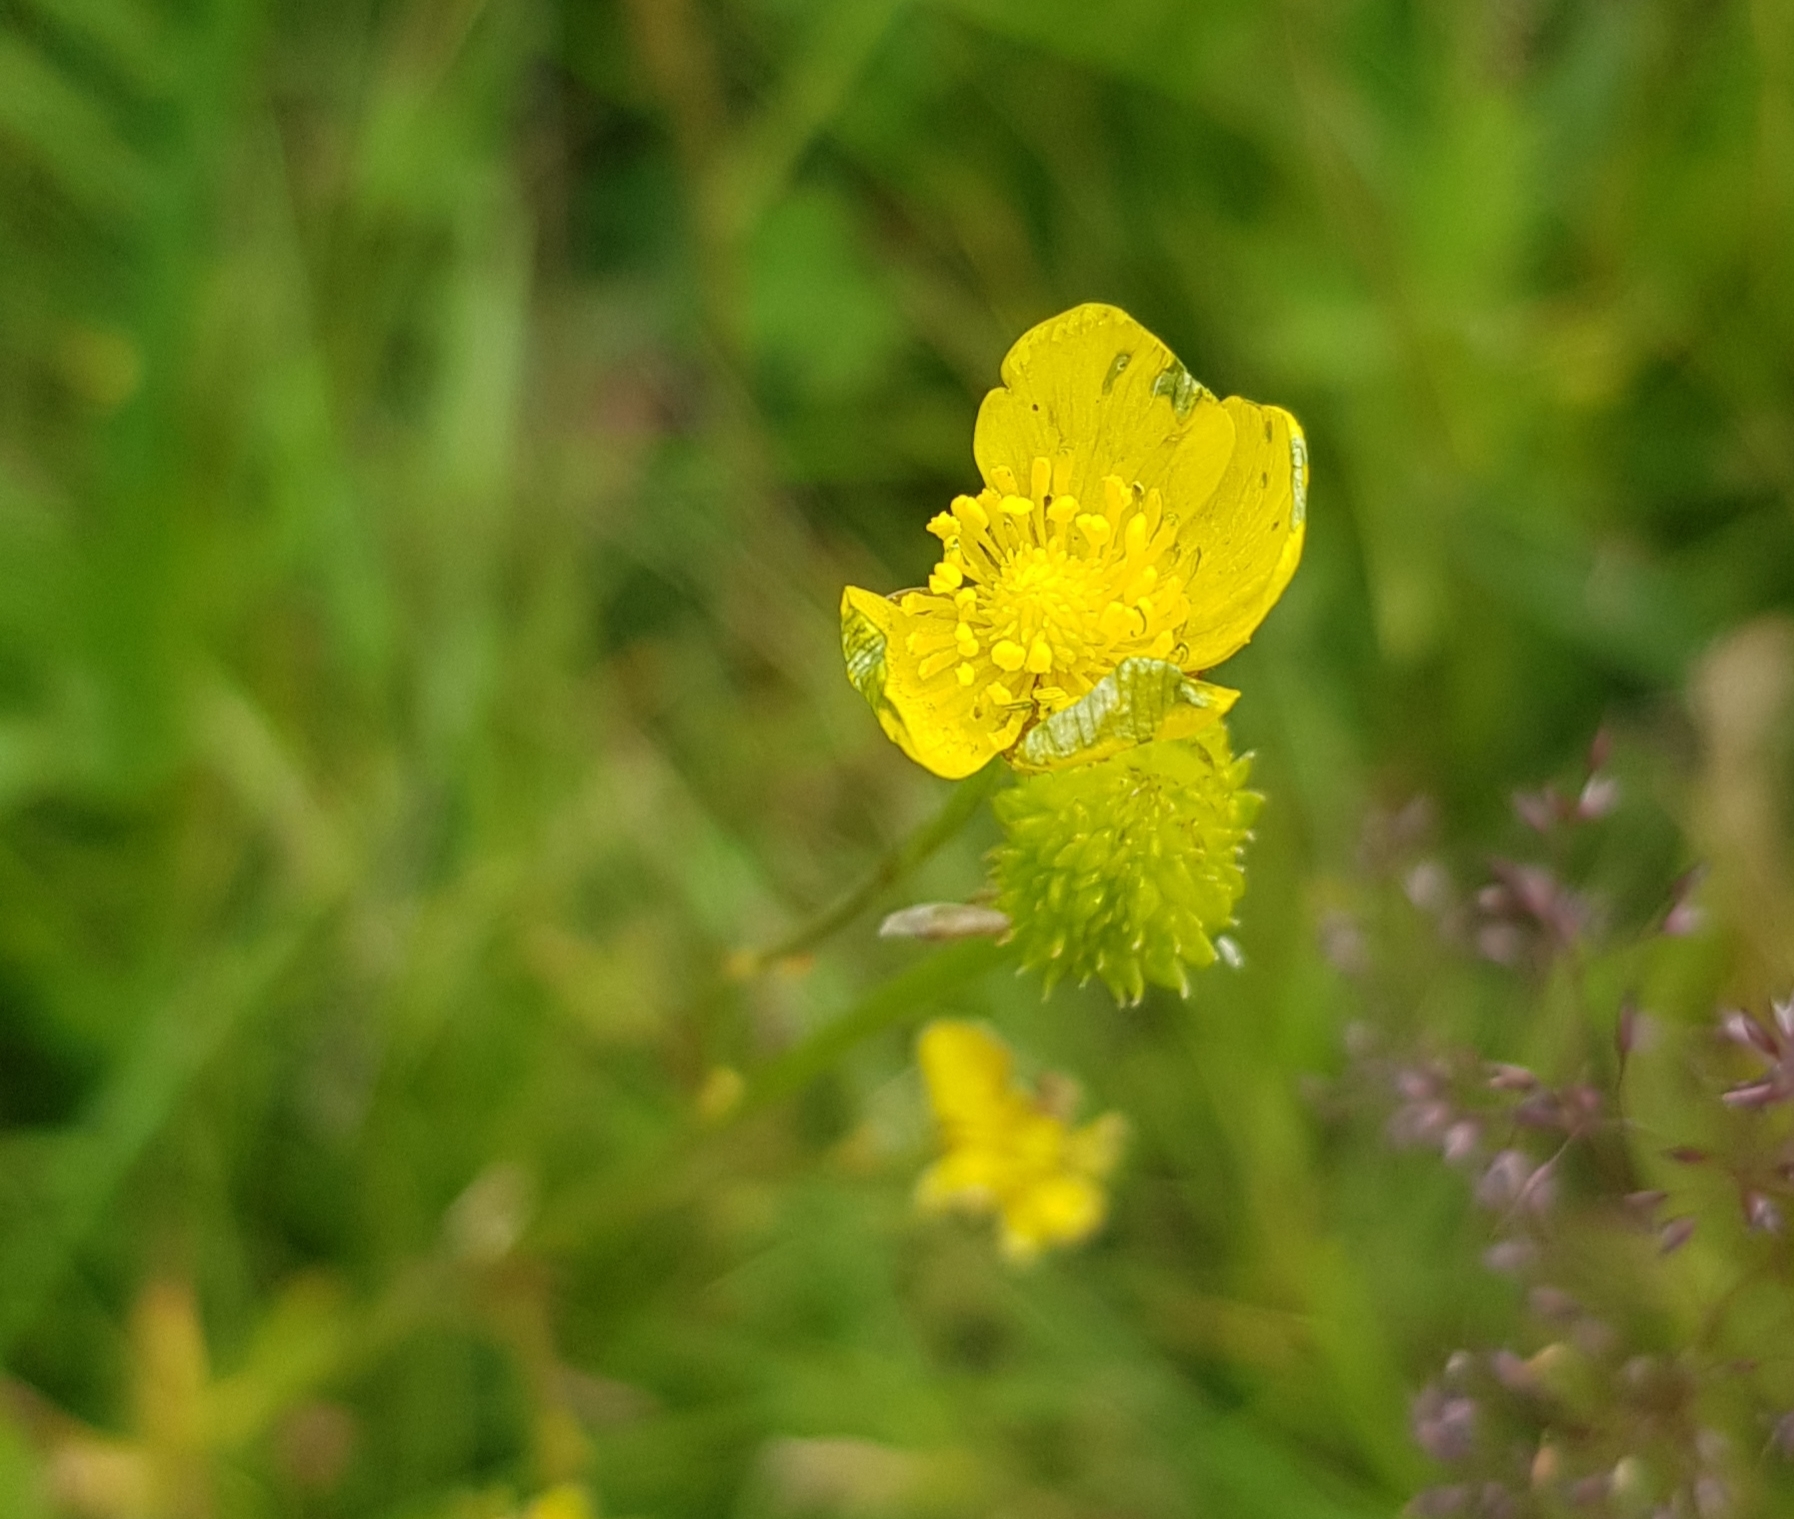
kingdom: Plantae
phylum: Tracheophyta
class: Magnoliopsida
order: Ranunculales
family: Ranunculaceae
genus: Ranunculus
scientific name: Ranunculus acris
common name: Meadow buttercup
